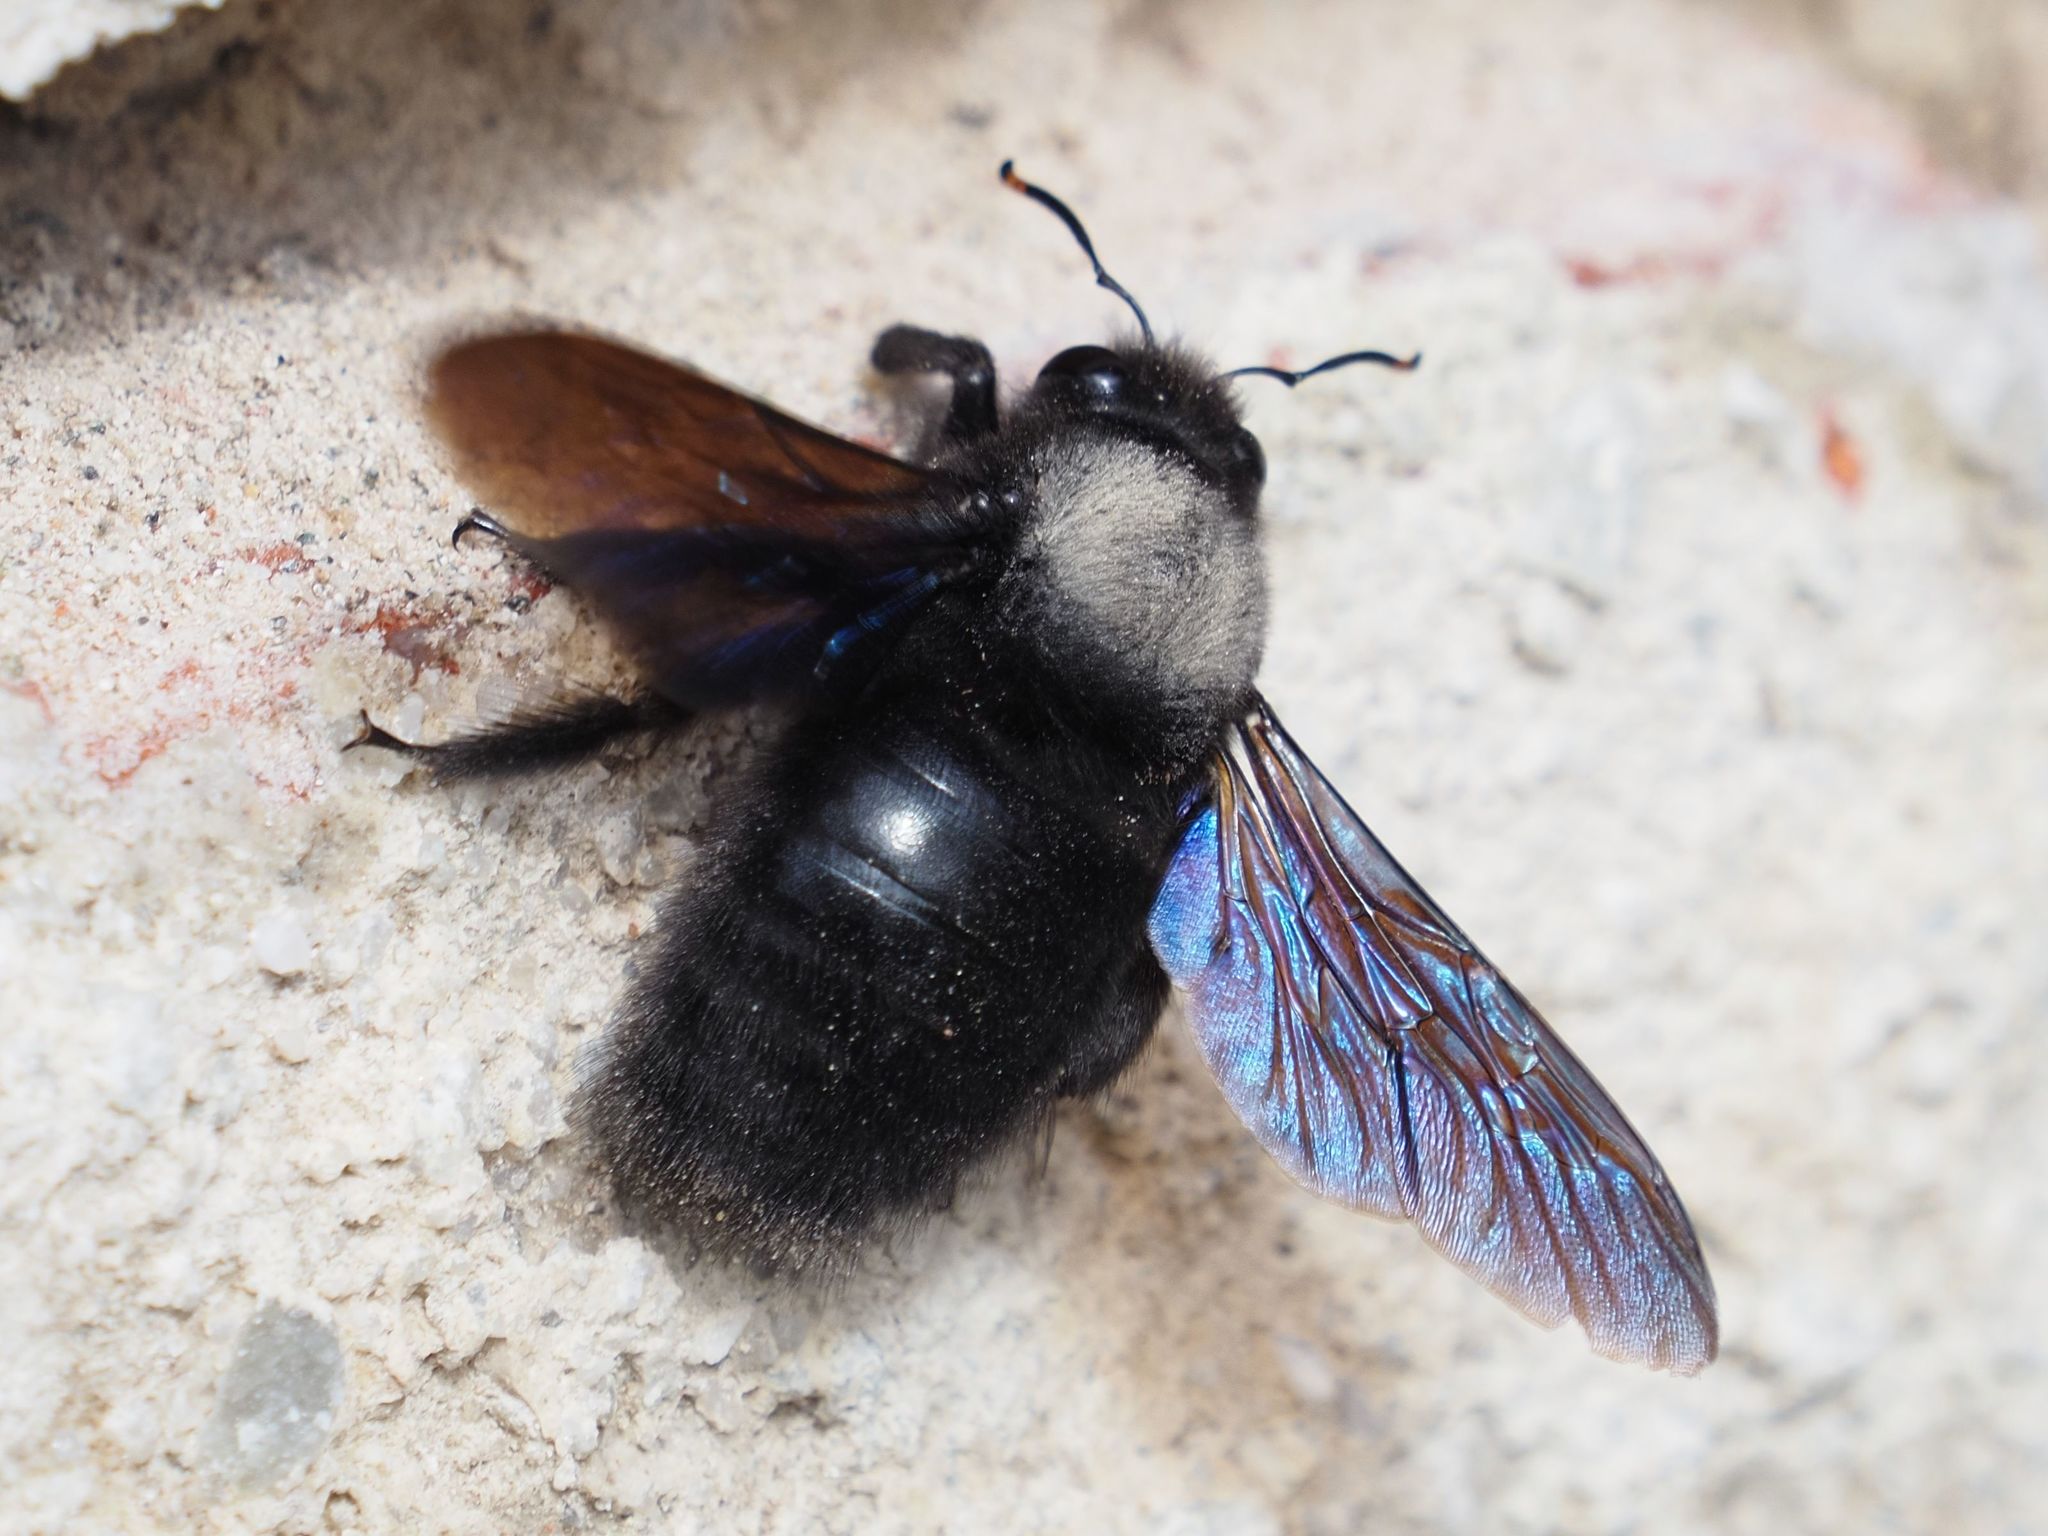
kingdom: Animalia
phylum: Arthropoda
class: Insecta
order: Hymenoptera
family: Apidae
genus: Xylocopa
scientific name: Xylocopa violacea
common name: Violet carpenter bee
